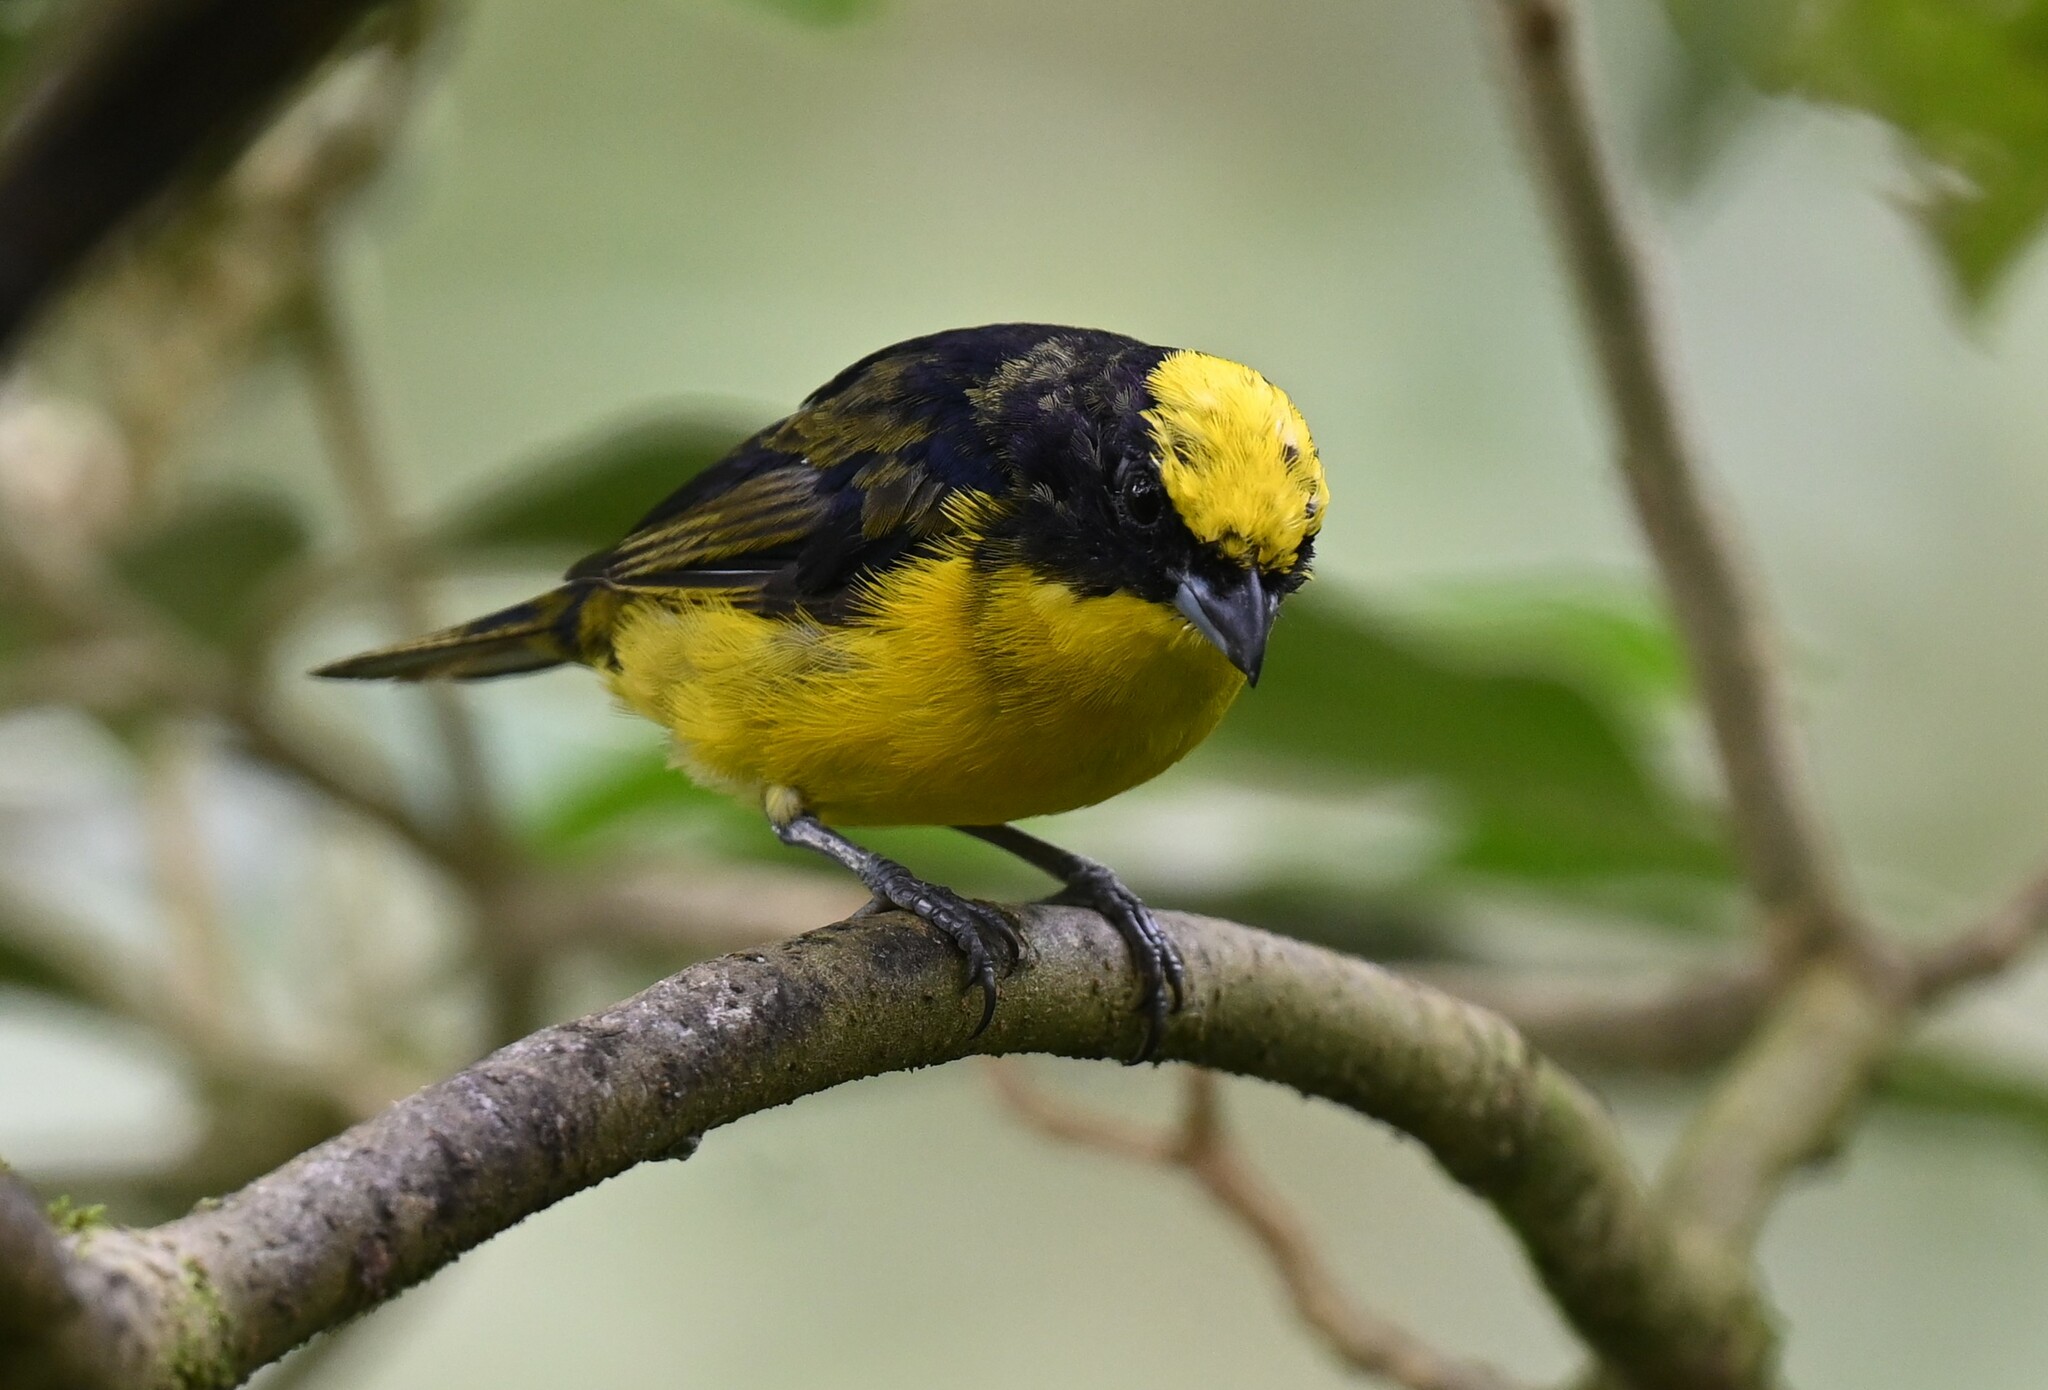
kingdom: Animalia
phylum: Chordata
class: Aves
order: Passeriformes
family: Fringillidae
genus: Euphonia
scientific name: Euphonia laniirostris
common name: Thick-billed euphonia
